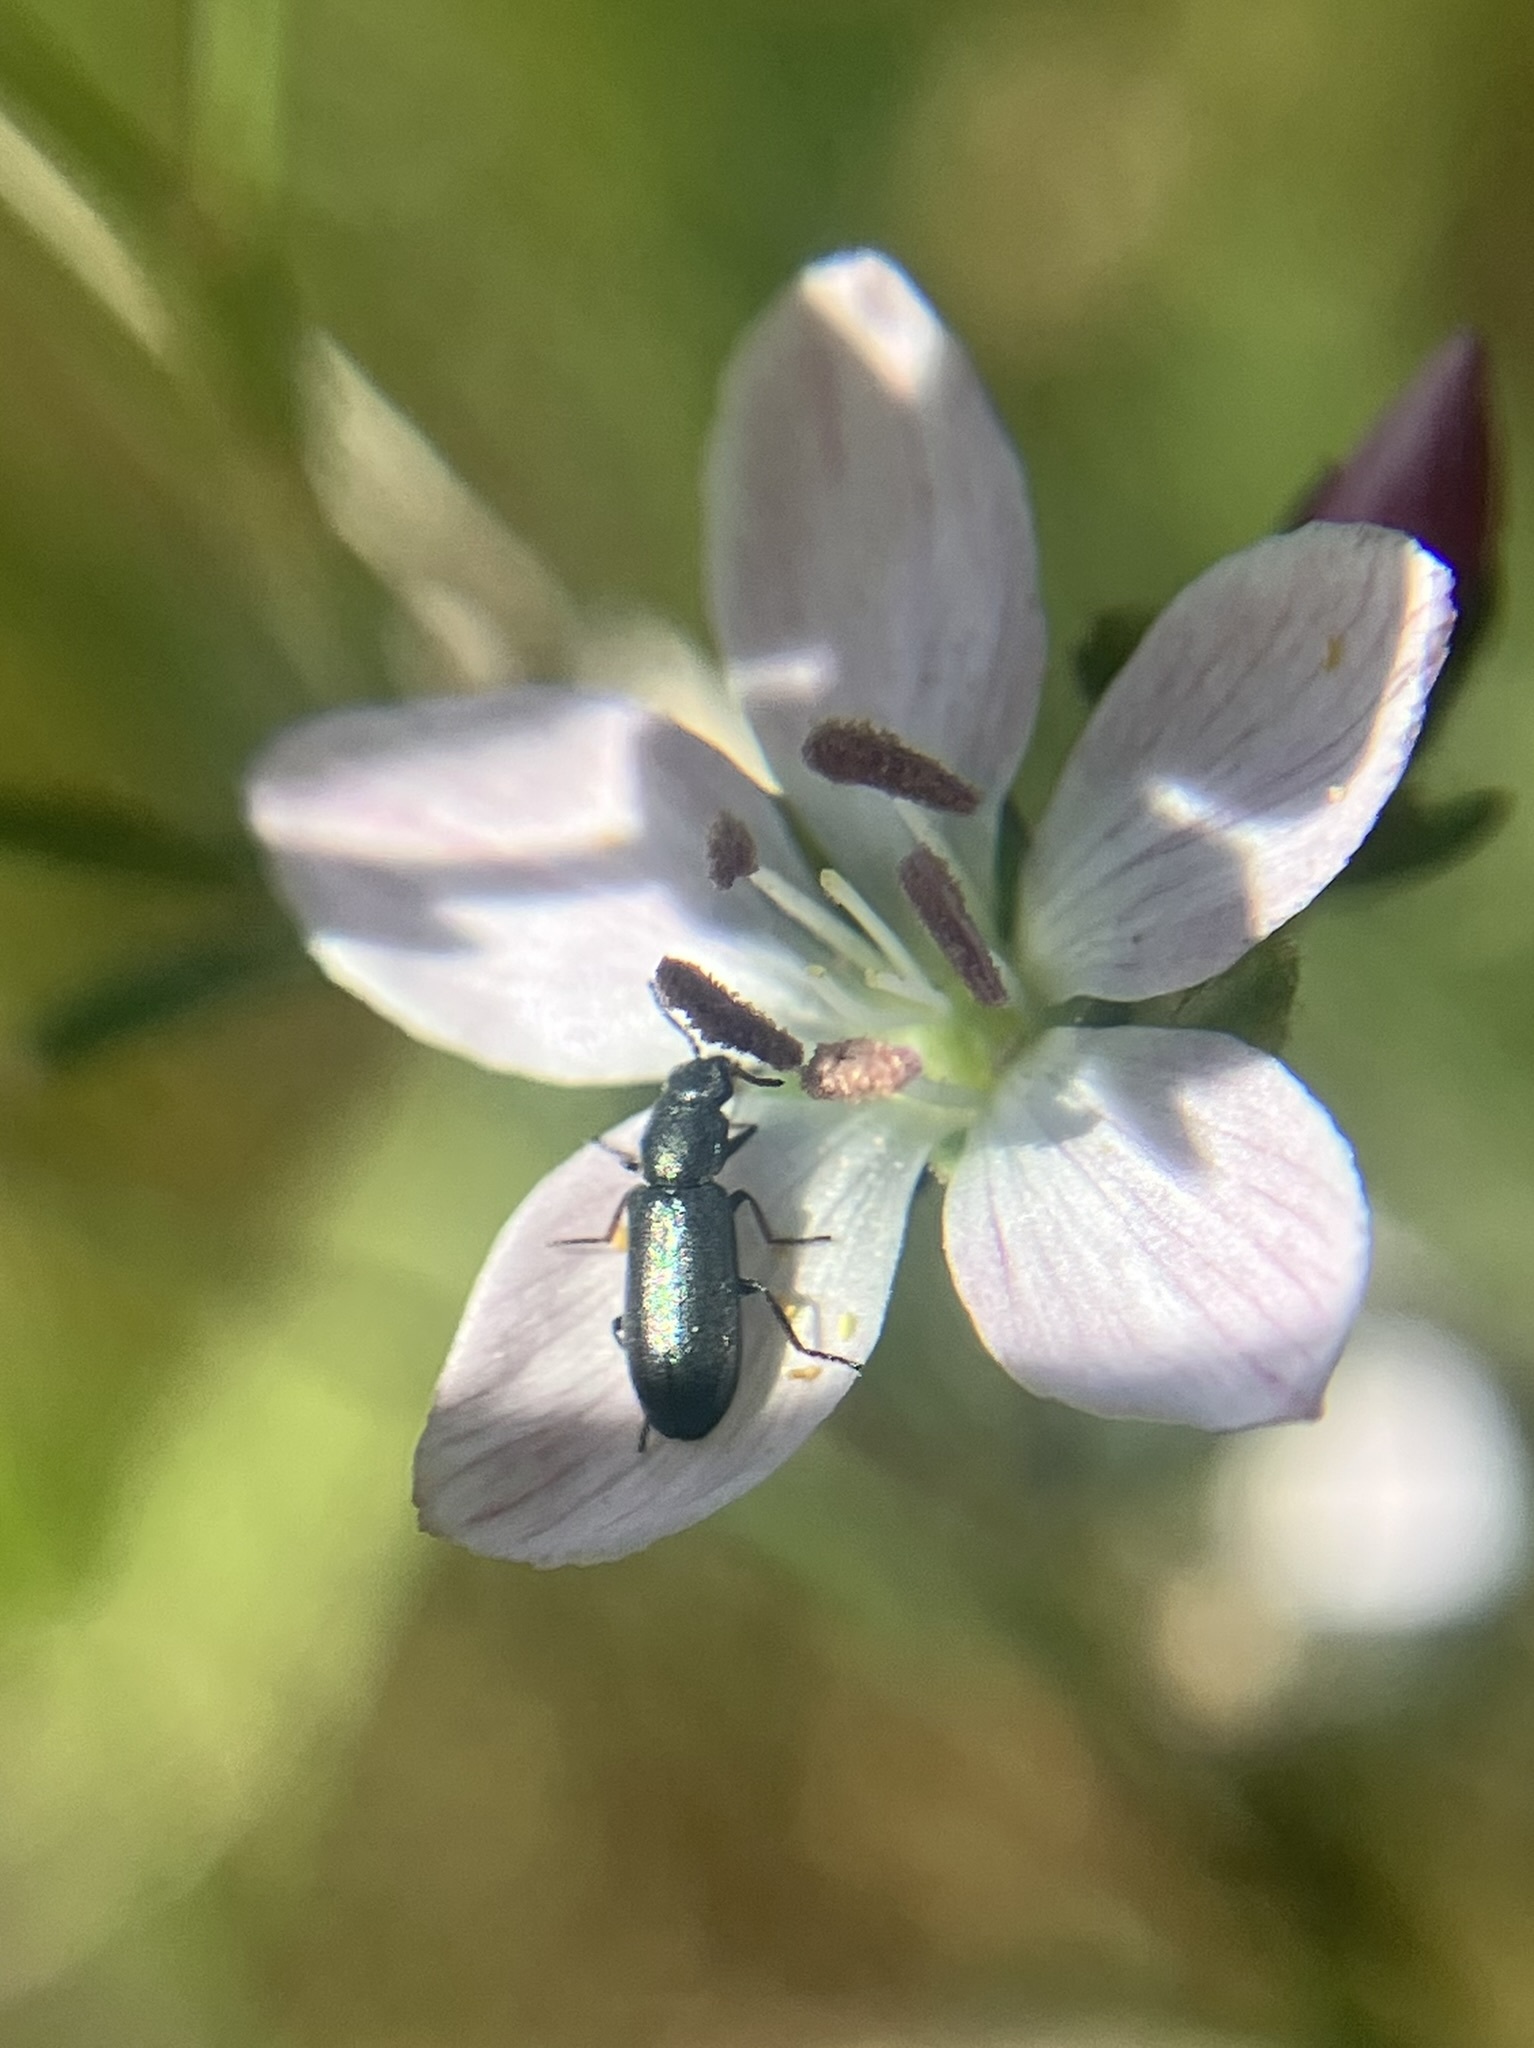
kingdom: Plantae
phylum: Tracheophyta
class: Magnoliopsida
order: Malpighiales
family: Linaceae
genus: Hesperolinon
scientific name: Hesperolinon congestum
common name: Marin dwarf-flax
